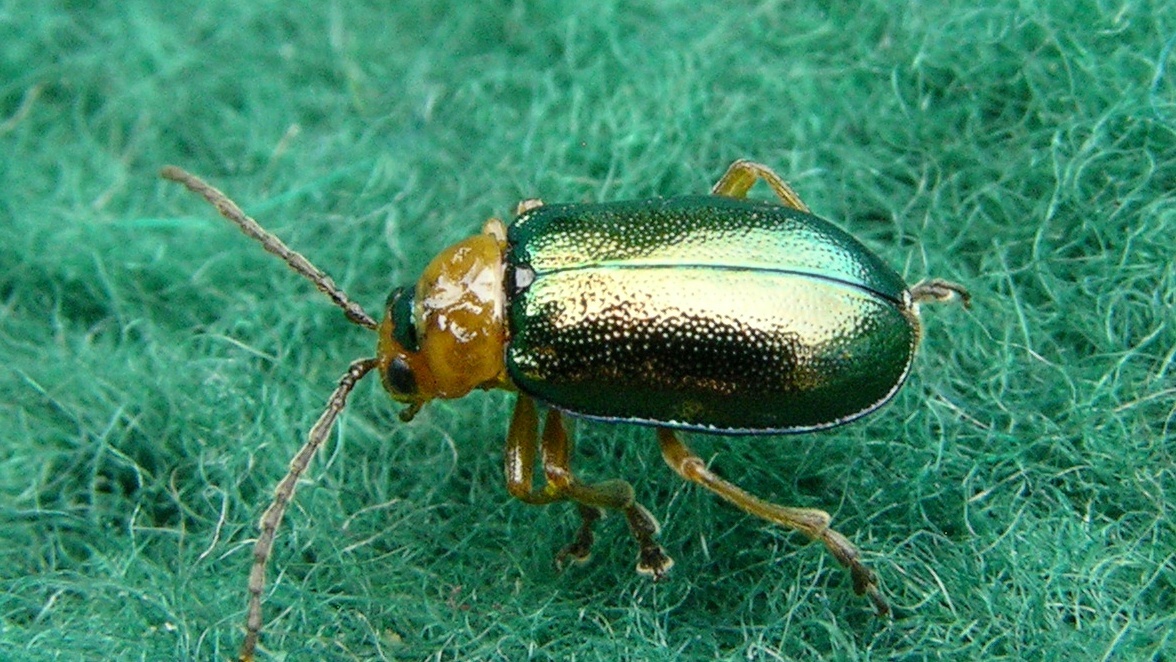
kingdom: Animalia
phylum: Arthropoda
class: Insecta
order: Coleoptera
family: Chrysomelidae
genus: Sermylassa
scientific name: Sermylassa halensis
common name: Leaf beetle
